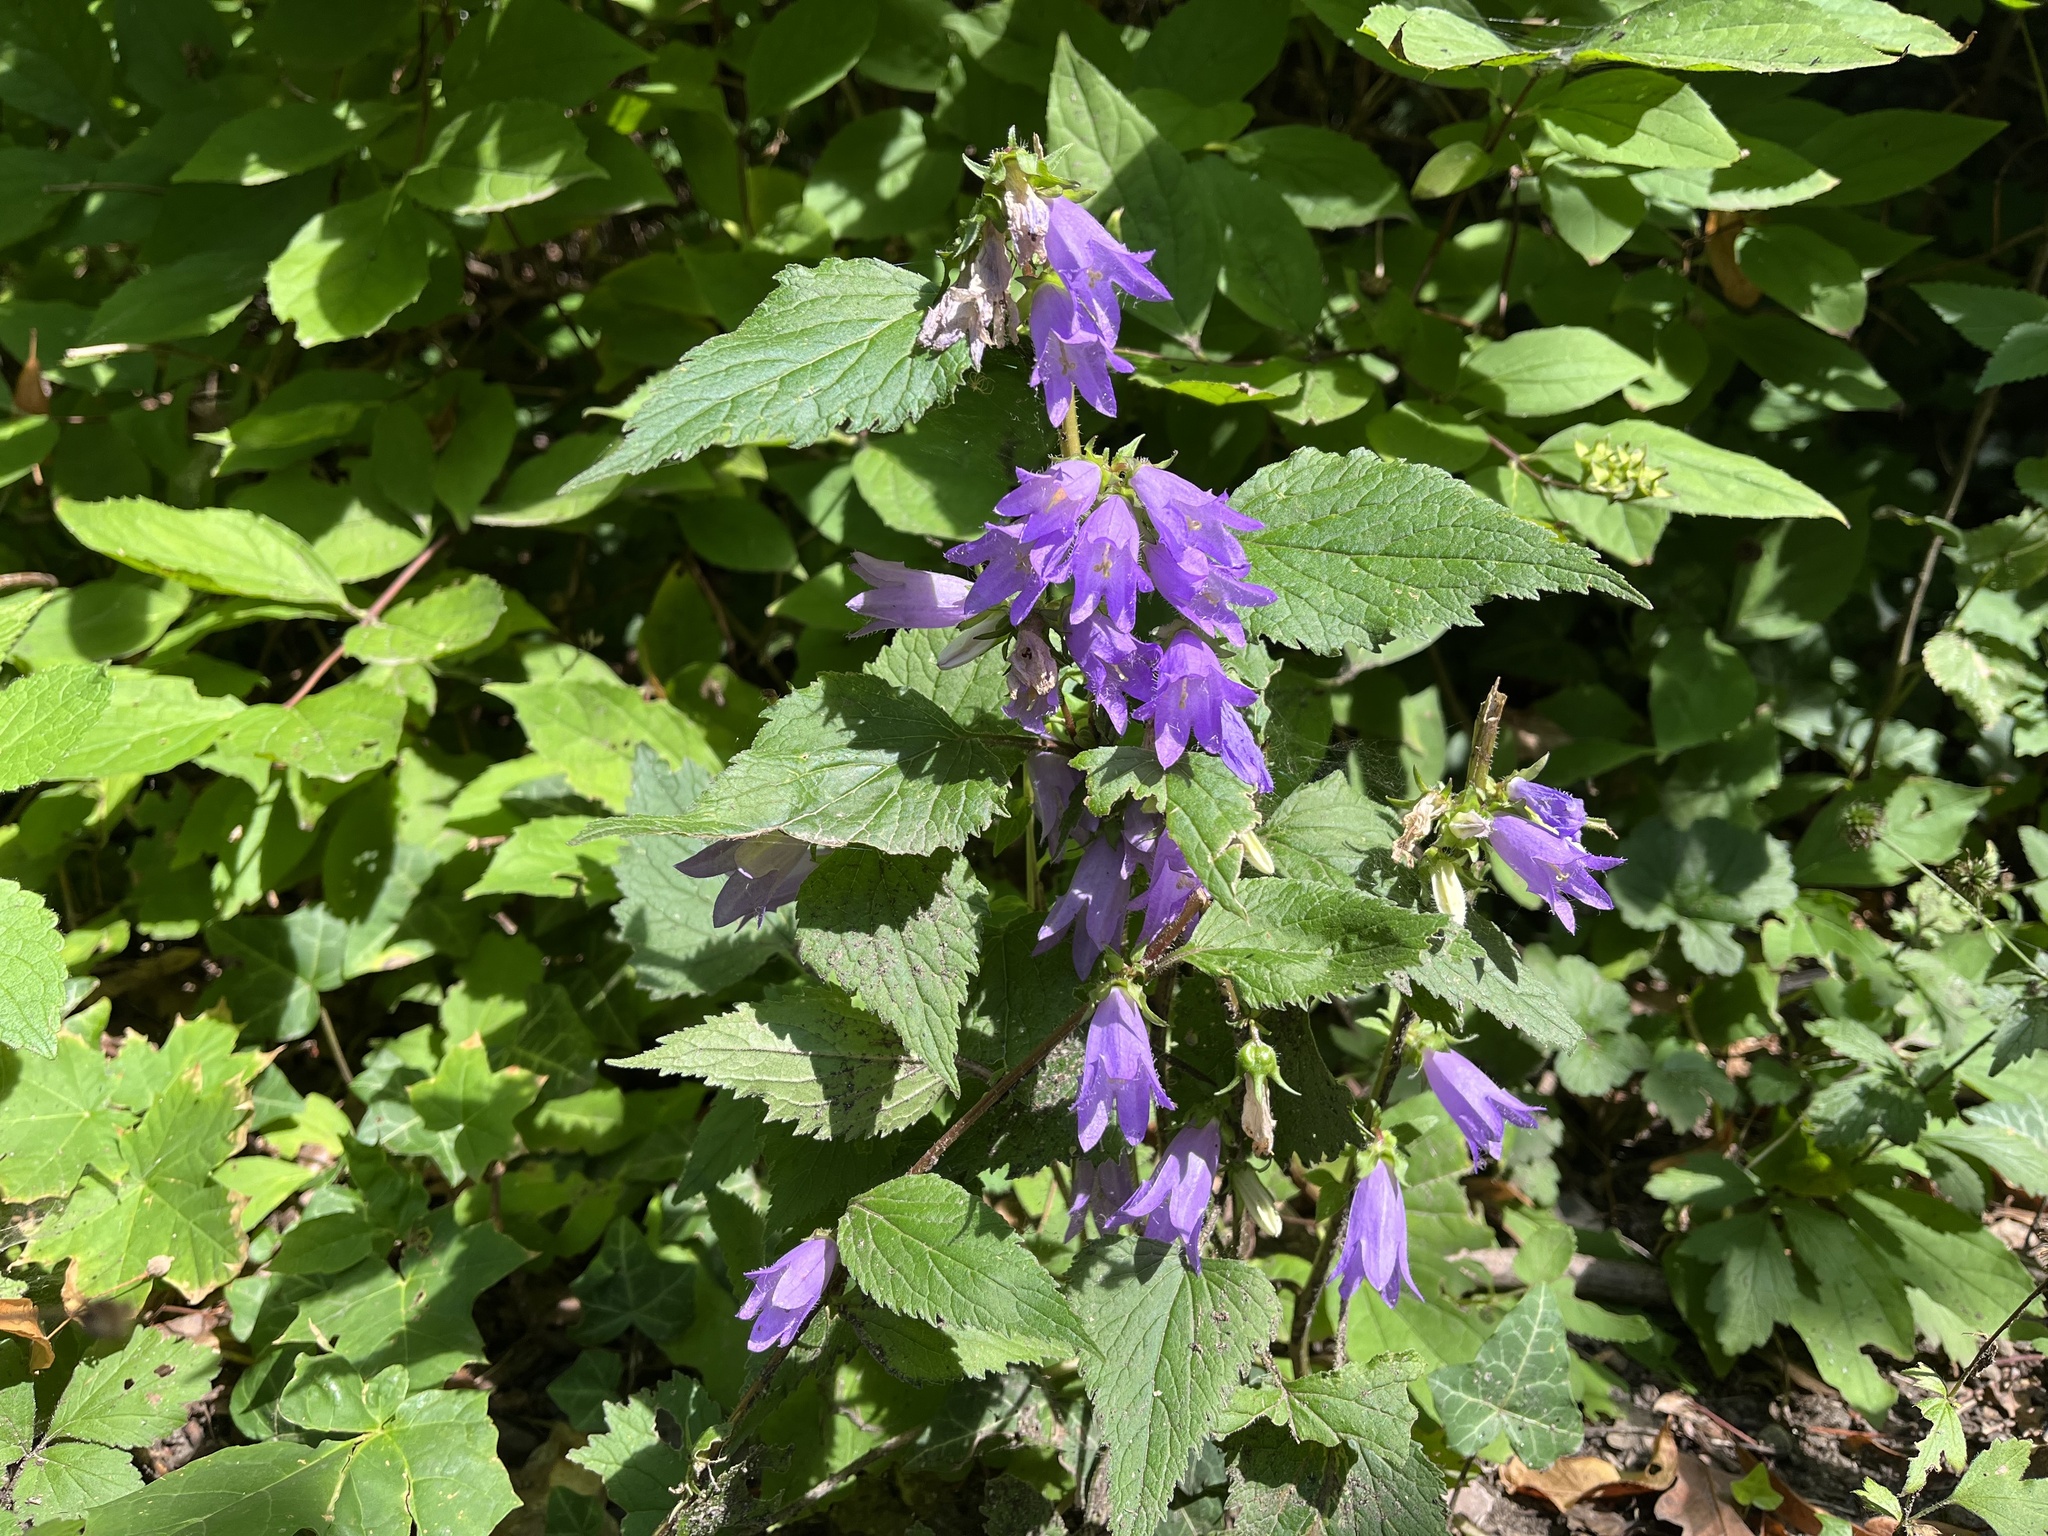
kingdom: Plantae
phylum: Tracheophyta
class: Magnoliopsida
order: Asterales
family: Campanulaceae
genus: Campanula
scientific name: Campanula trachelium
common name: Nettle-leaved bellflower
